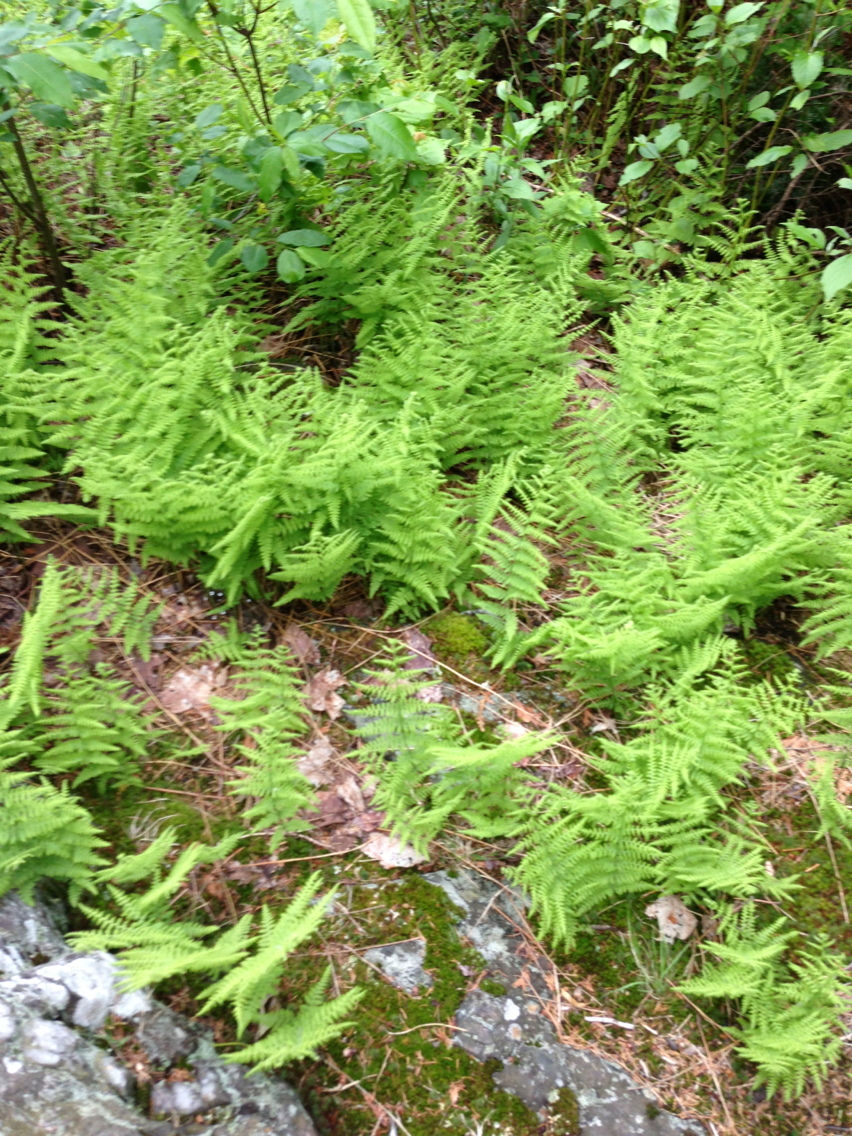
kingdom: Plantae
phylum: Tracheophyta
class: Polypodiopsida
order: Polypodiales
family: Dennstaedtiaceae
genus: Sitobolium
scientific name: Sitobolium punctilobum
